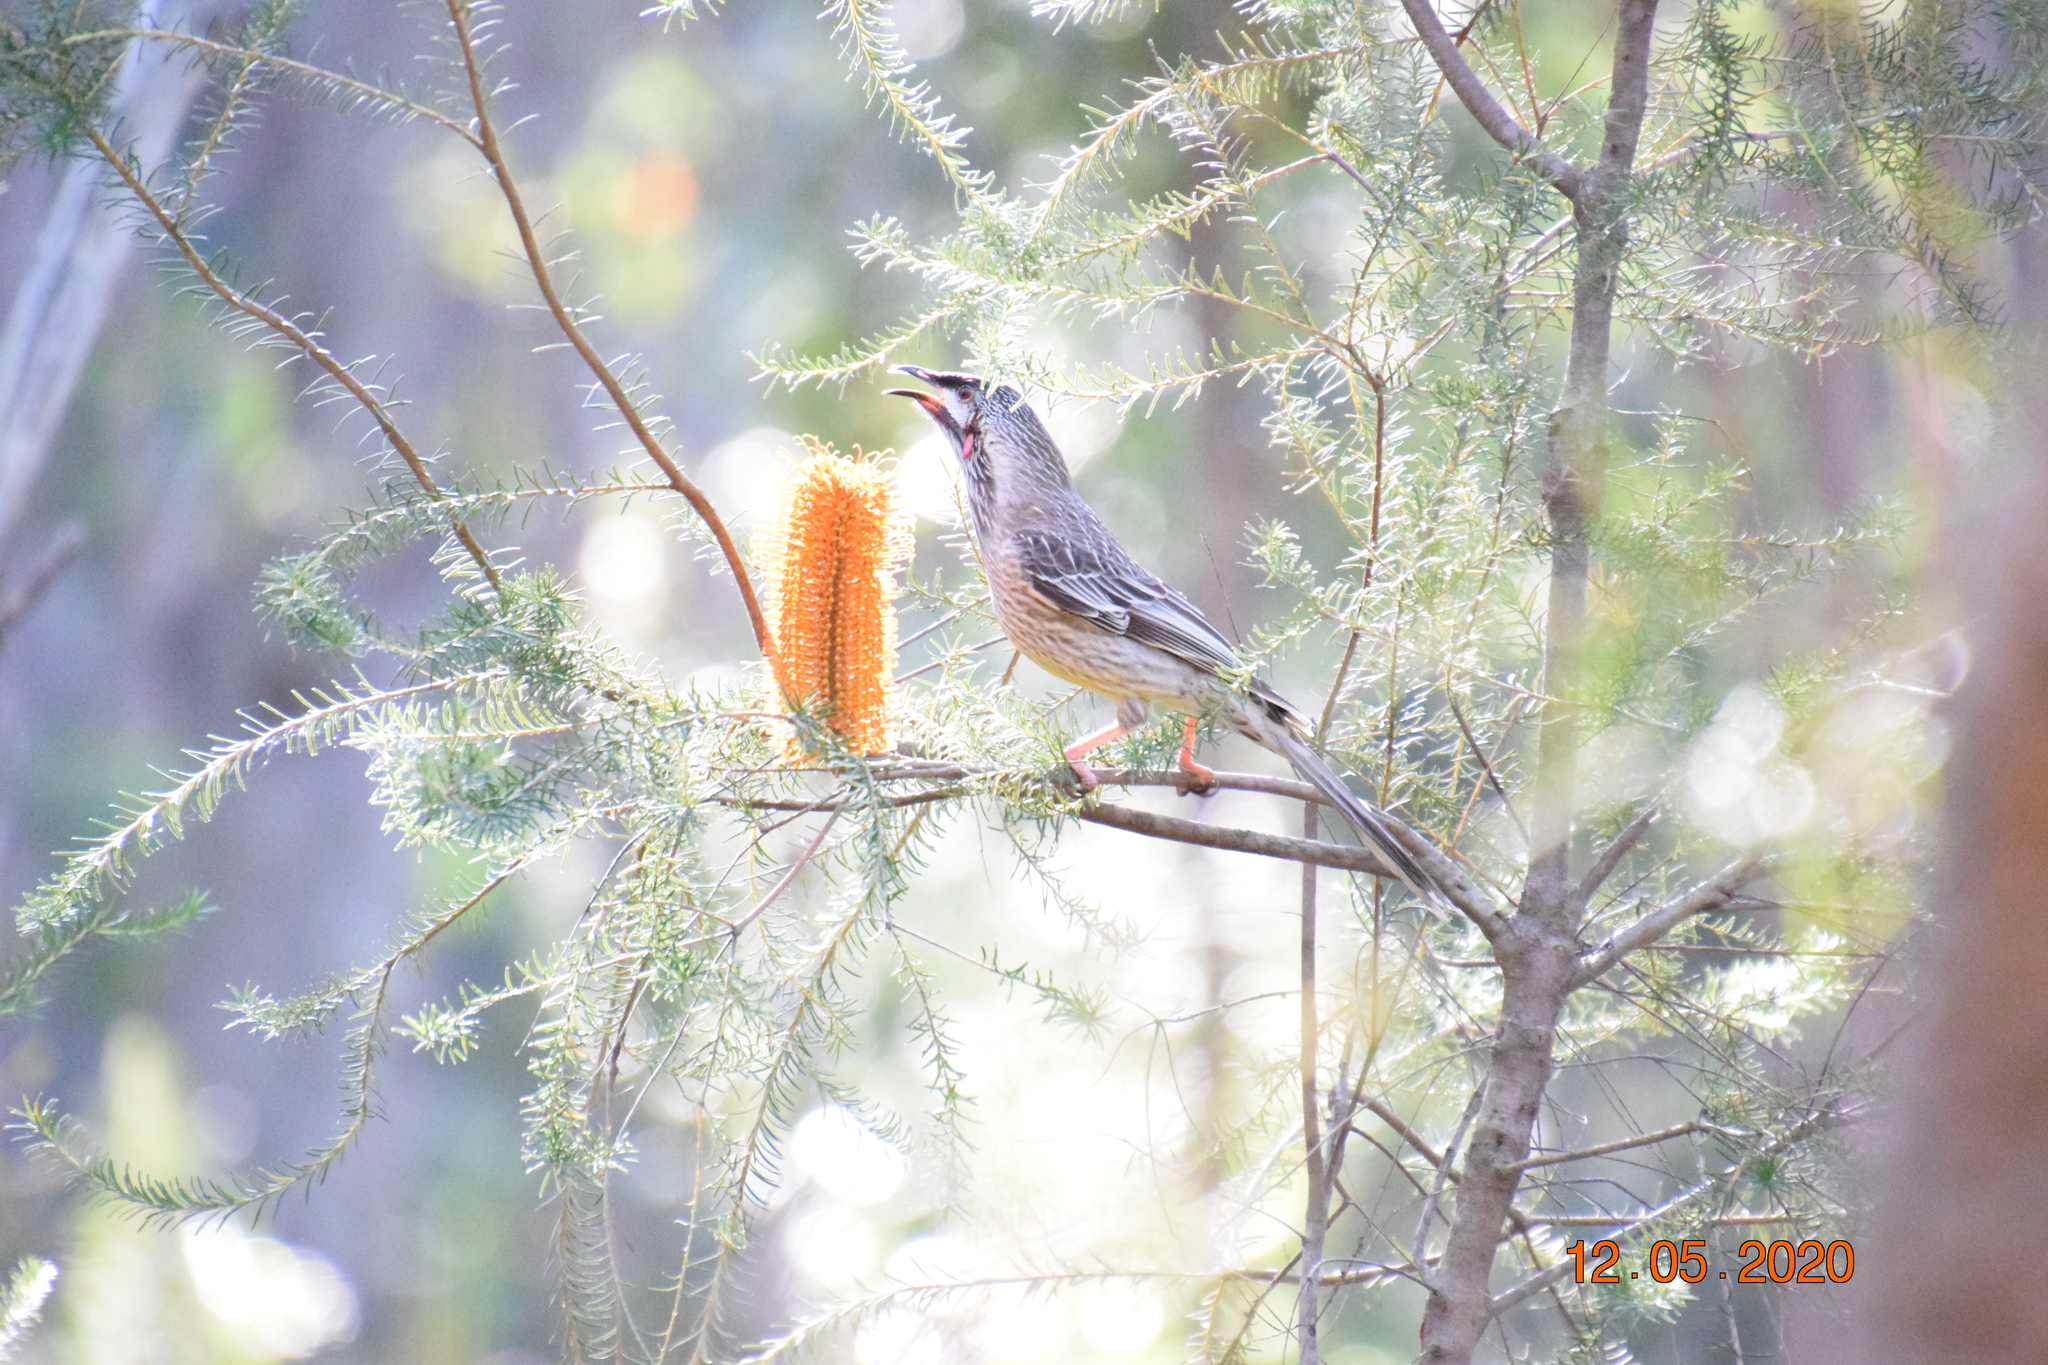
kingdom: Animalia
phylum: Chordata
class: Aves
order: Passeriformes
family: Meliphagidae
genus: Anthochaera
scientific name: Anthochaera carunculata
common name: Red wattlebird
